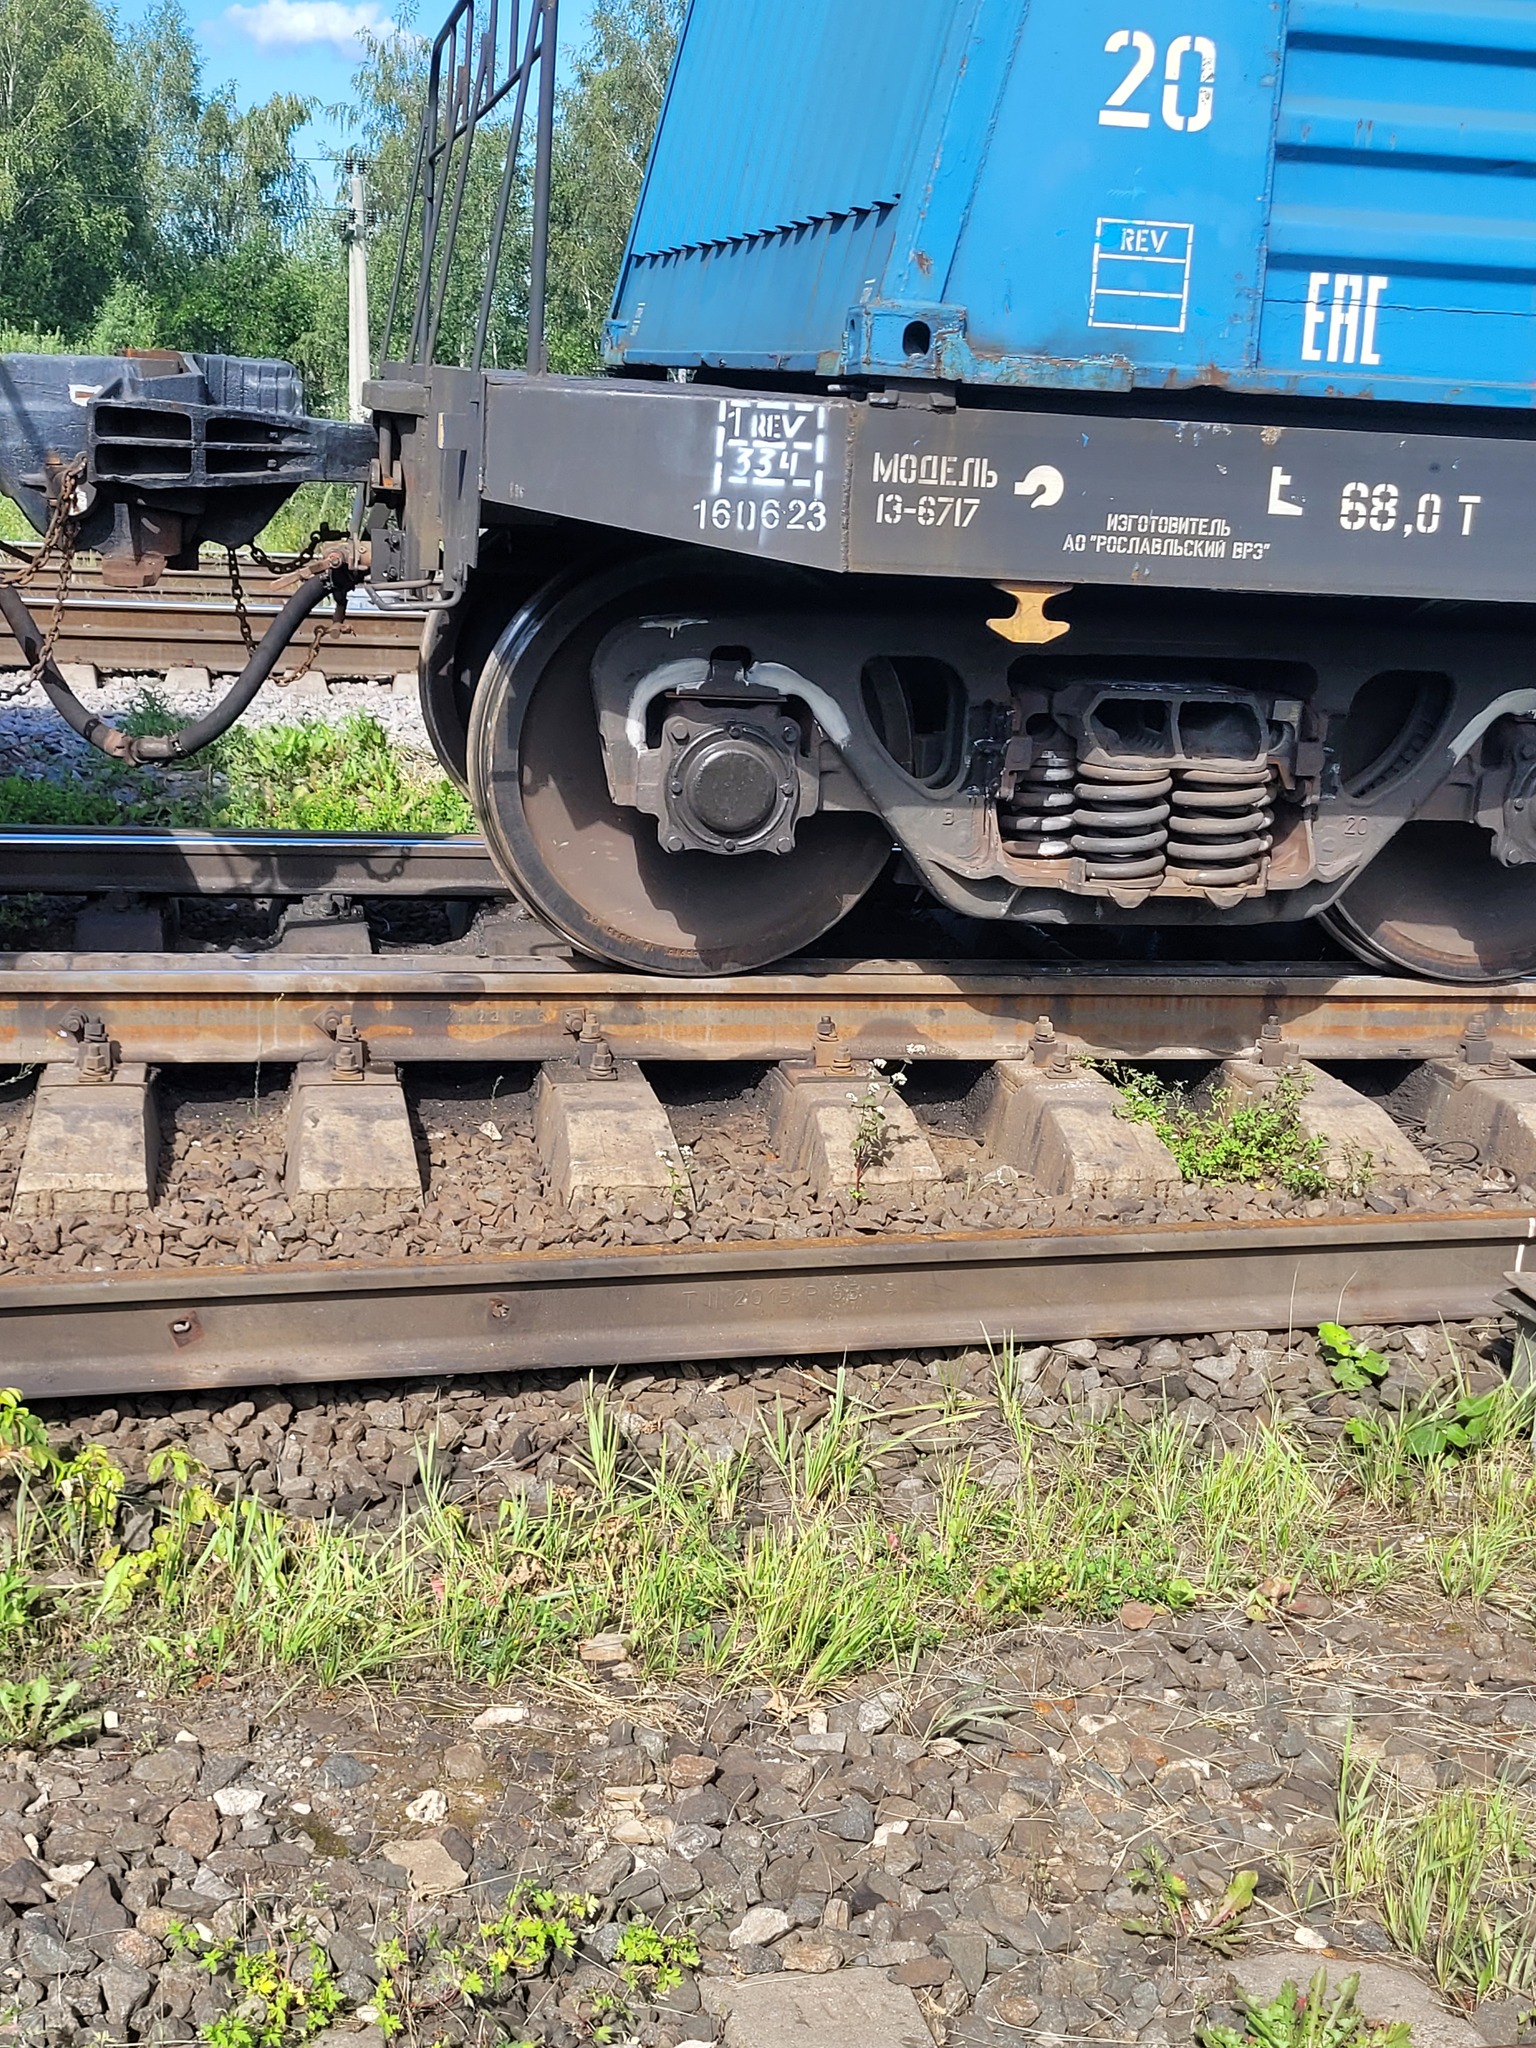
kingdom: Plantae
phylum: Tracheophyta
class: Magnoliopsida
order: Caryophyllales
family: Polygonaceae
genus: Fagopyrum
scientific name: Fagopyrum esculentum
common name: Buckwheat
